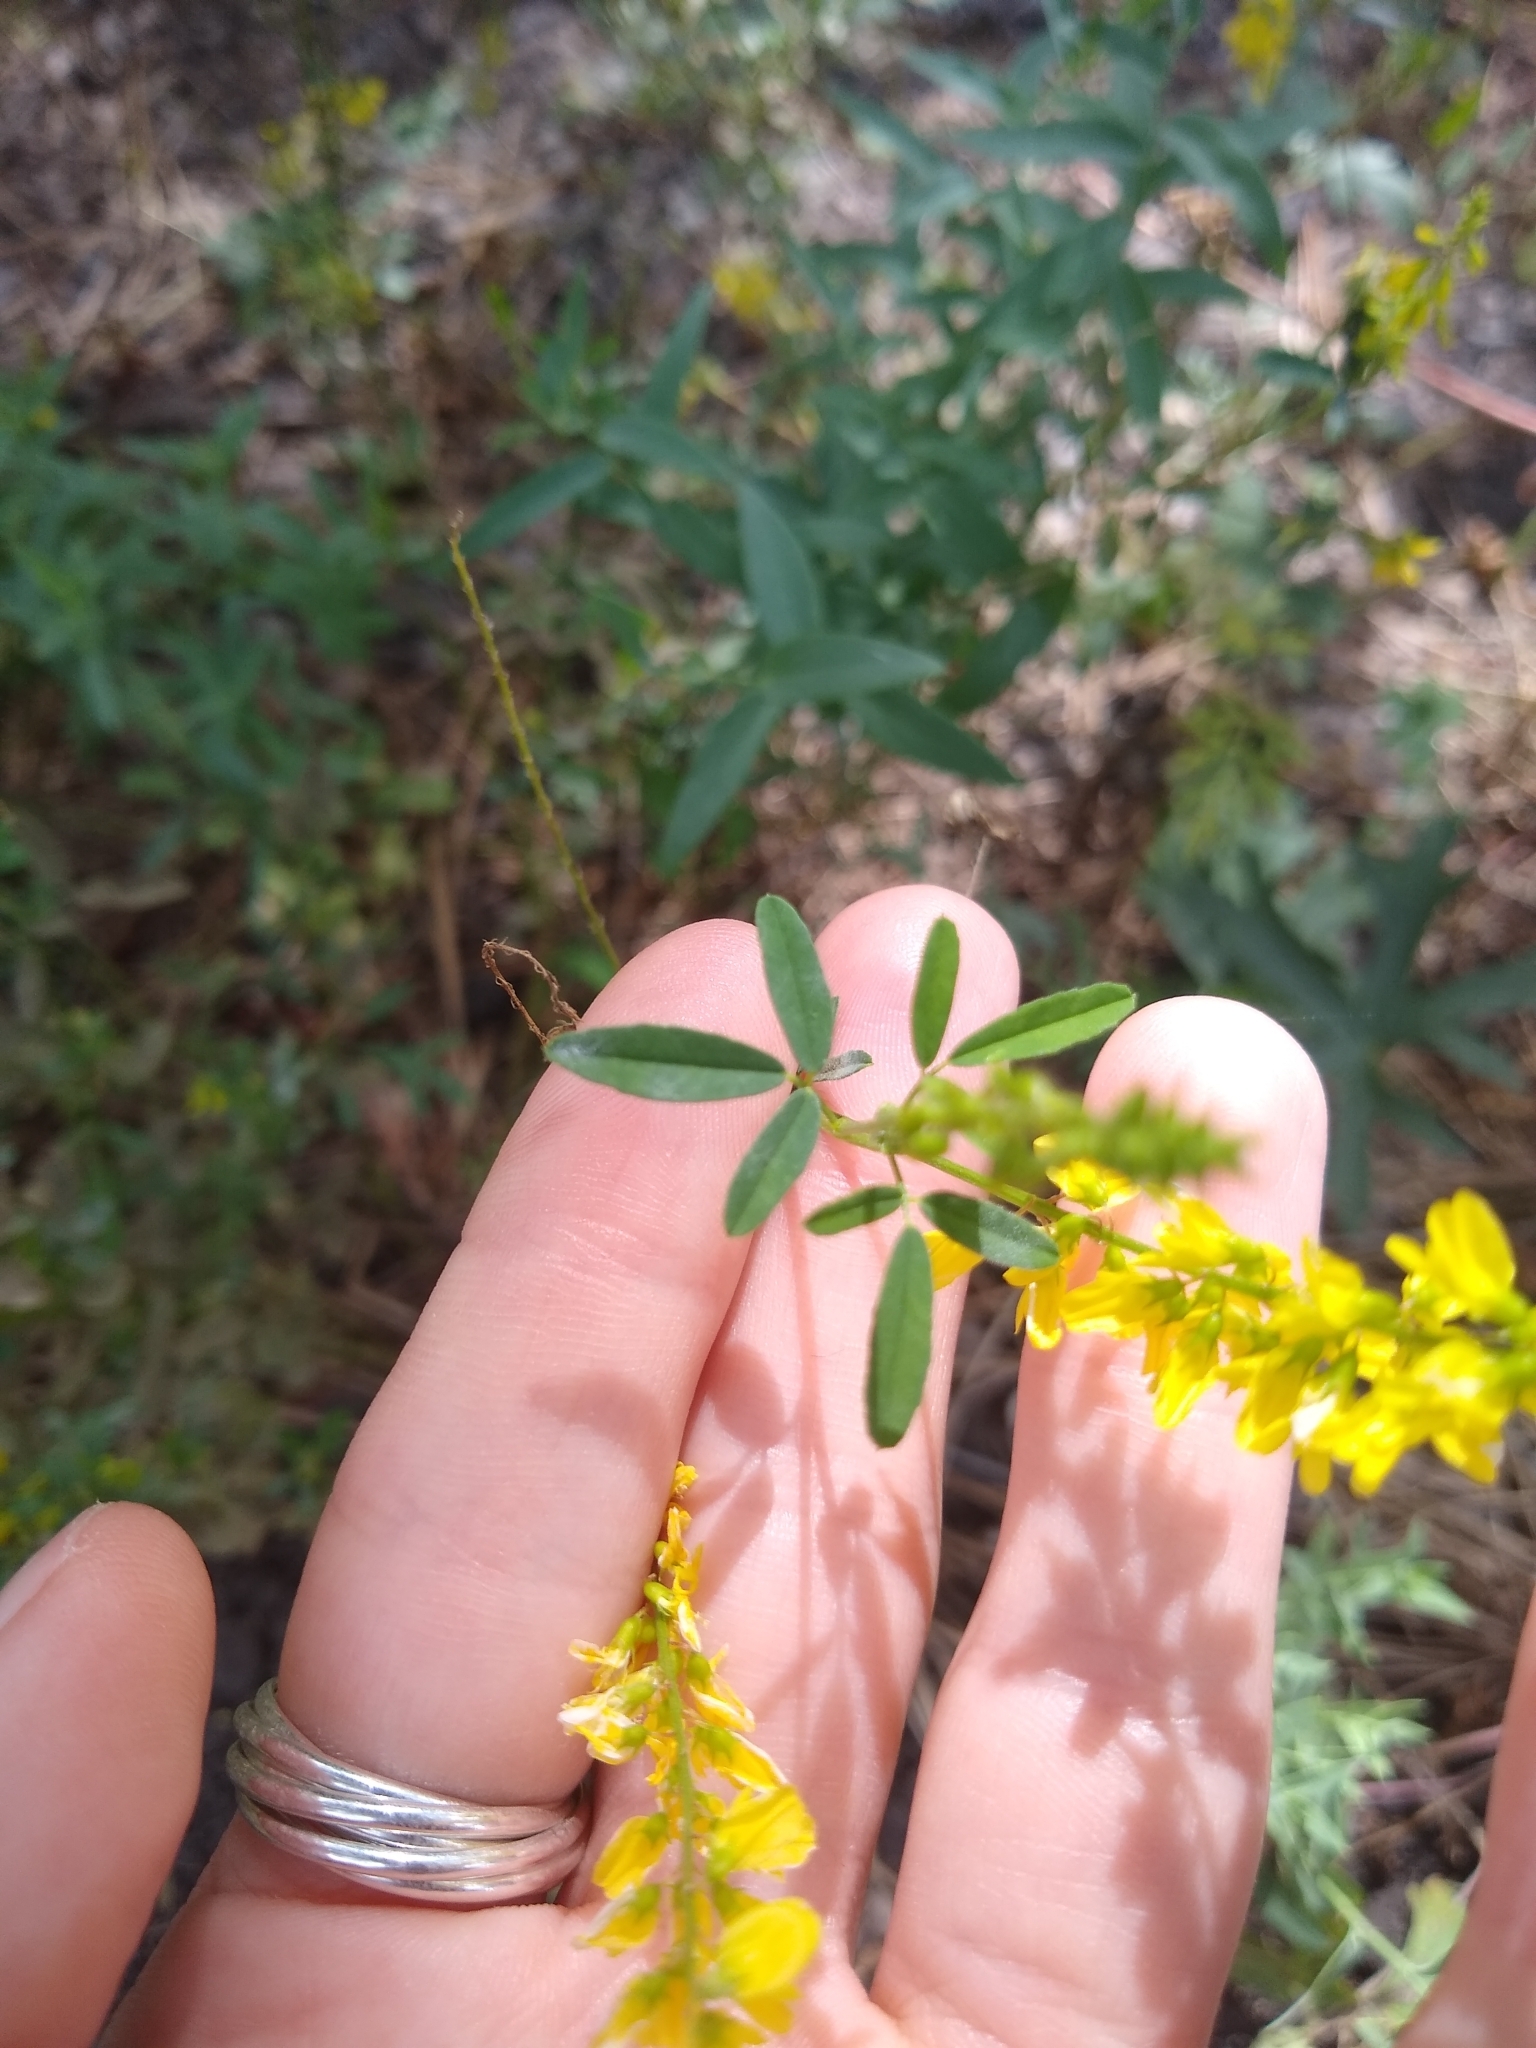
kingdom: Plantae
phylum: Tracheophyta
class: Magnoliopsida
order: Fabales
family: Fabaceae
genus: Melilotus
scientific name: Melilotus officinalis
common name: Sweetclover
